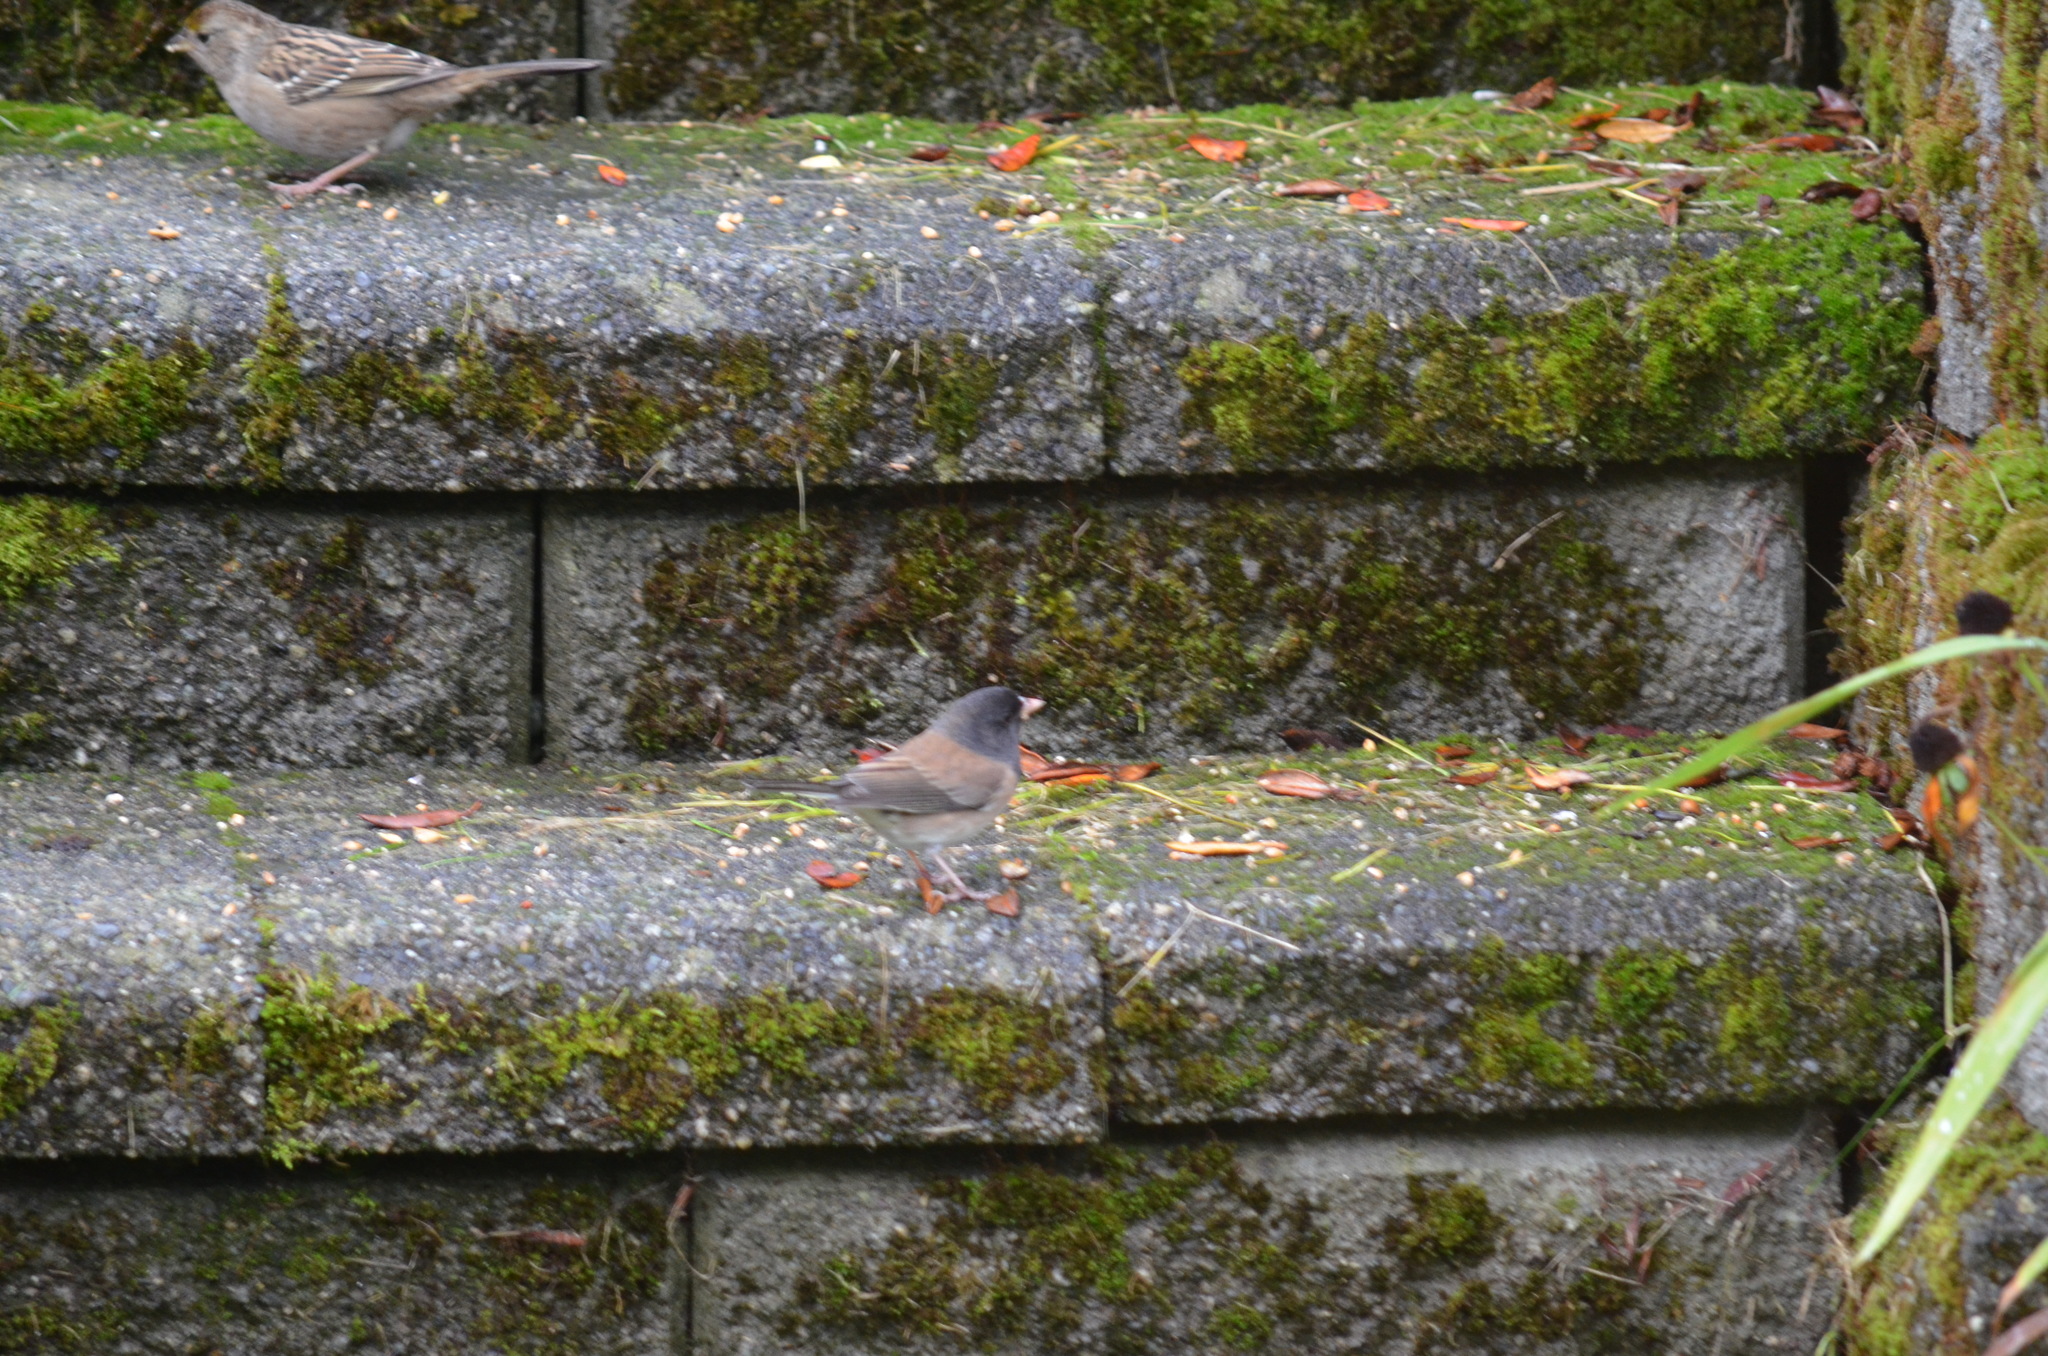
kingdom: Animalia
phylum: Chordata
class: Aves
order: Passeriformes
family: Passerellidae
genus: Junco
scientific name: Junco hyemalis
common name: Dark-eyed junco
